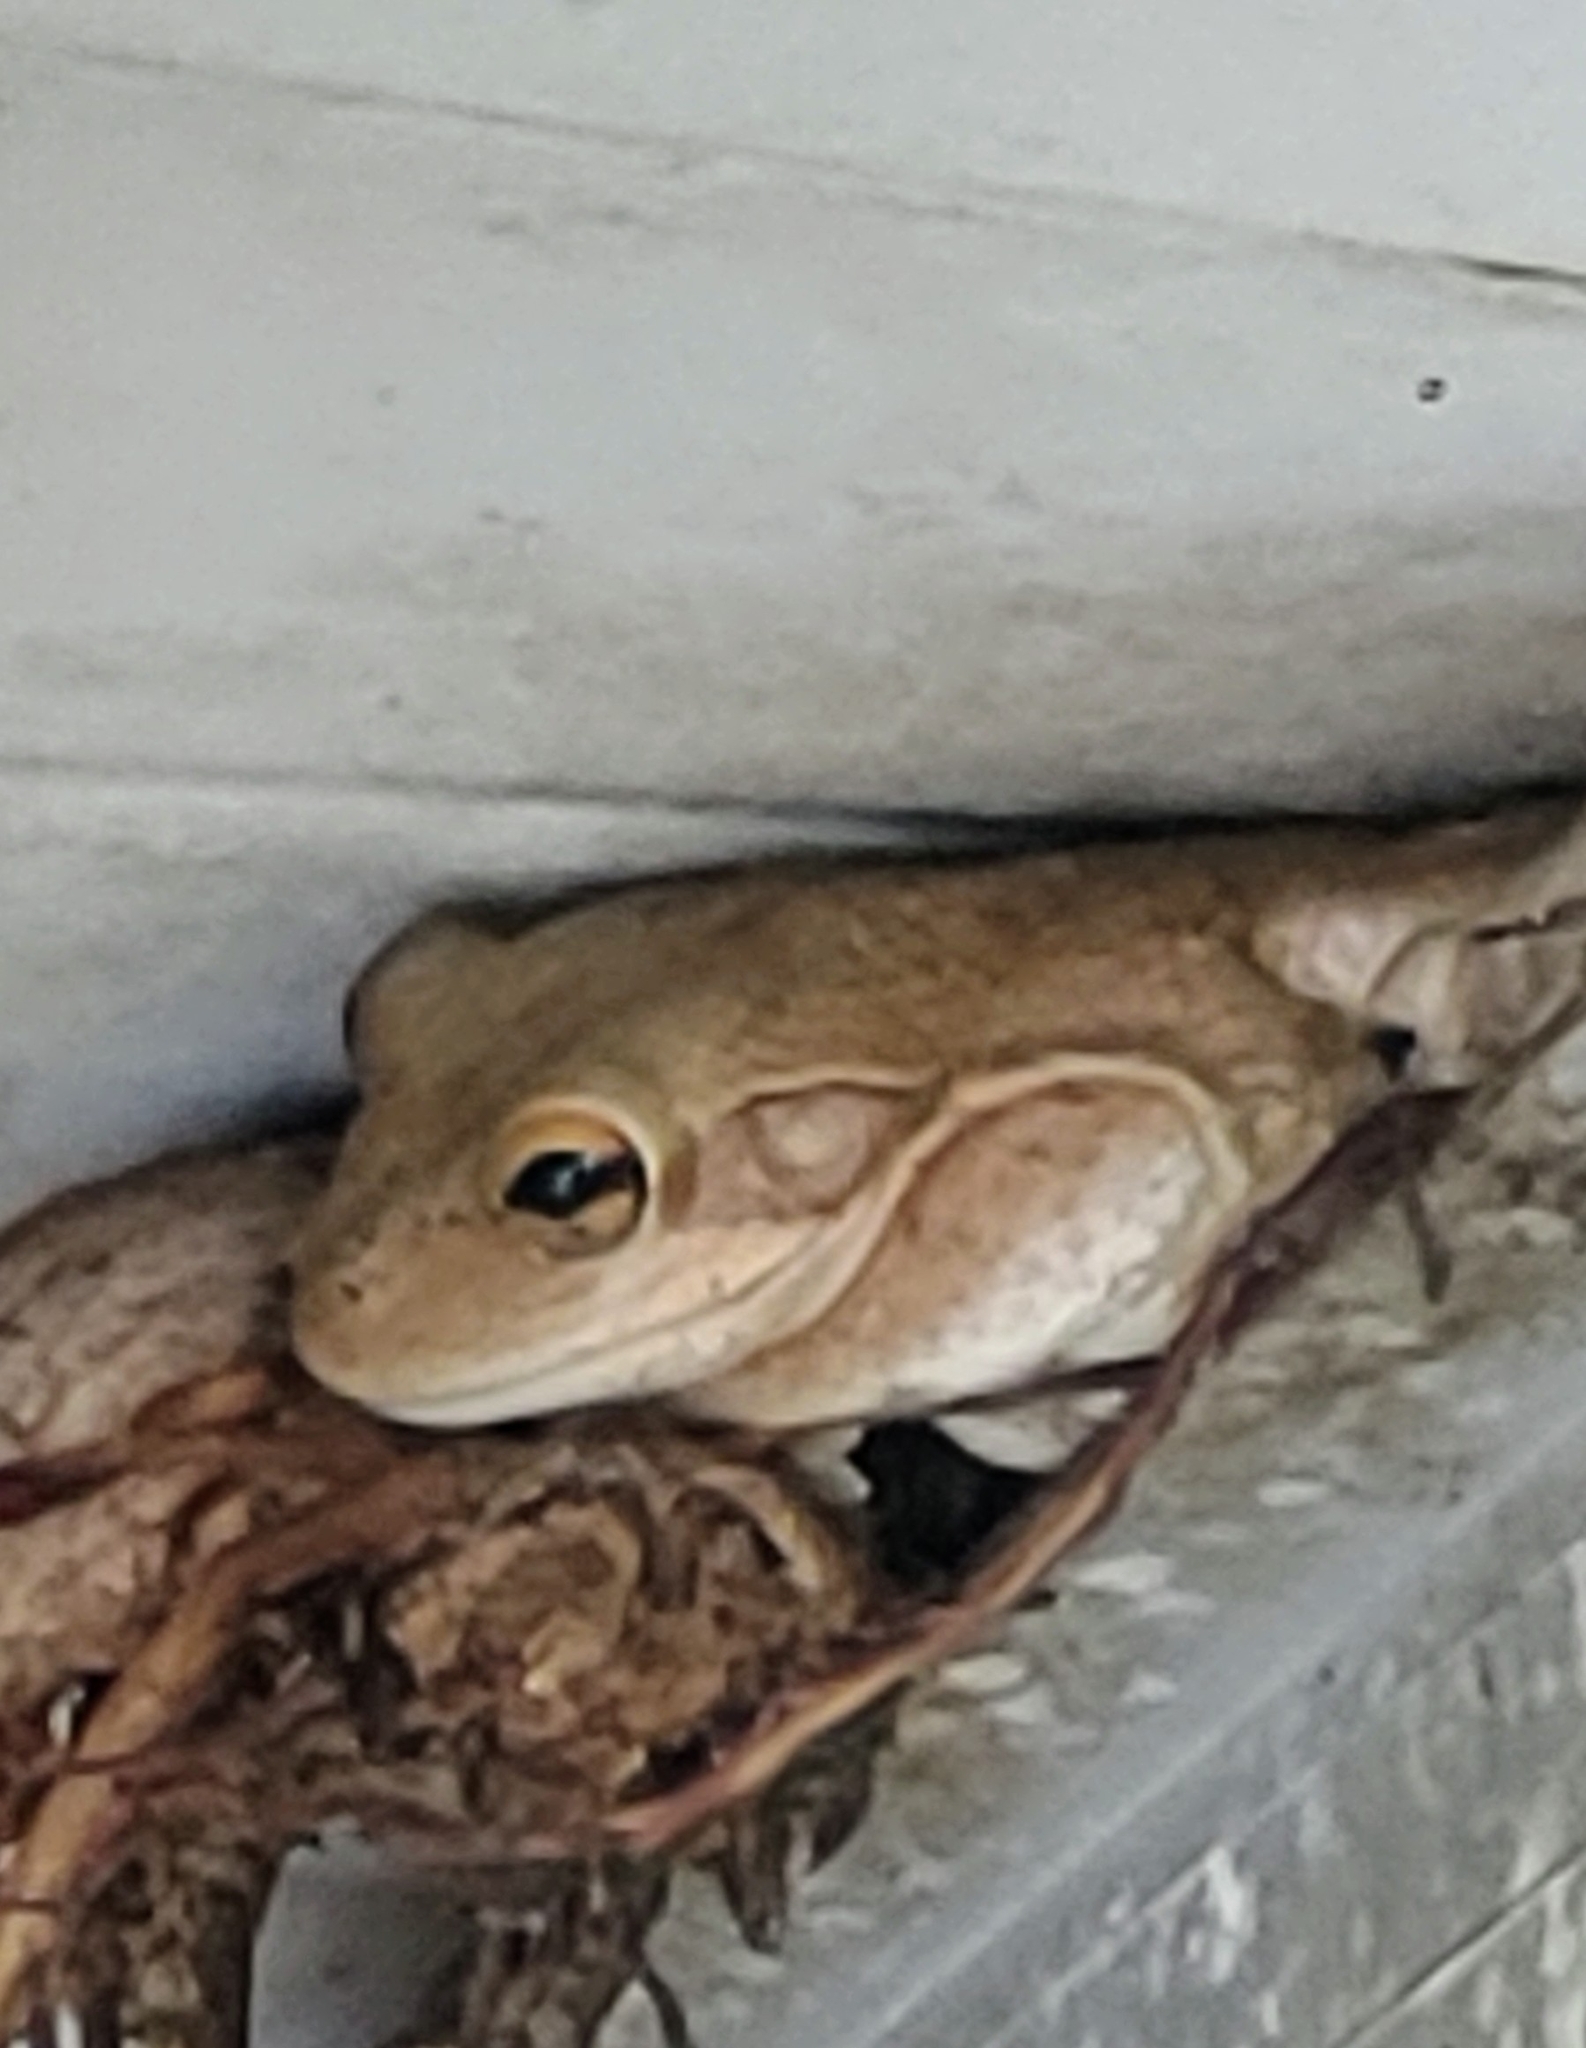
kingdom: Animalia
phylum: Chordata
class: Amphibia
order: Anura
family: Hylidae
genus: Osteopilus
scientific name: Osteopilus septentrionalis
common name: Cuban treefrog
